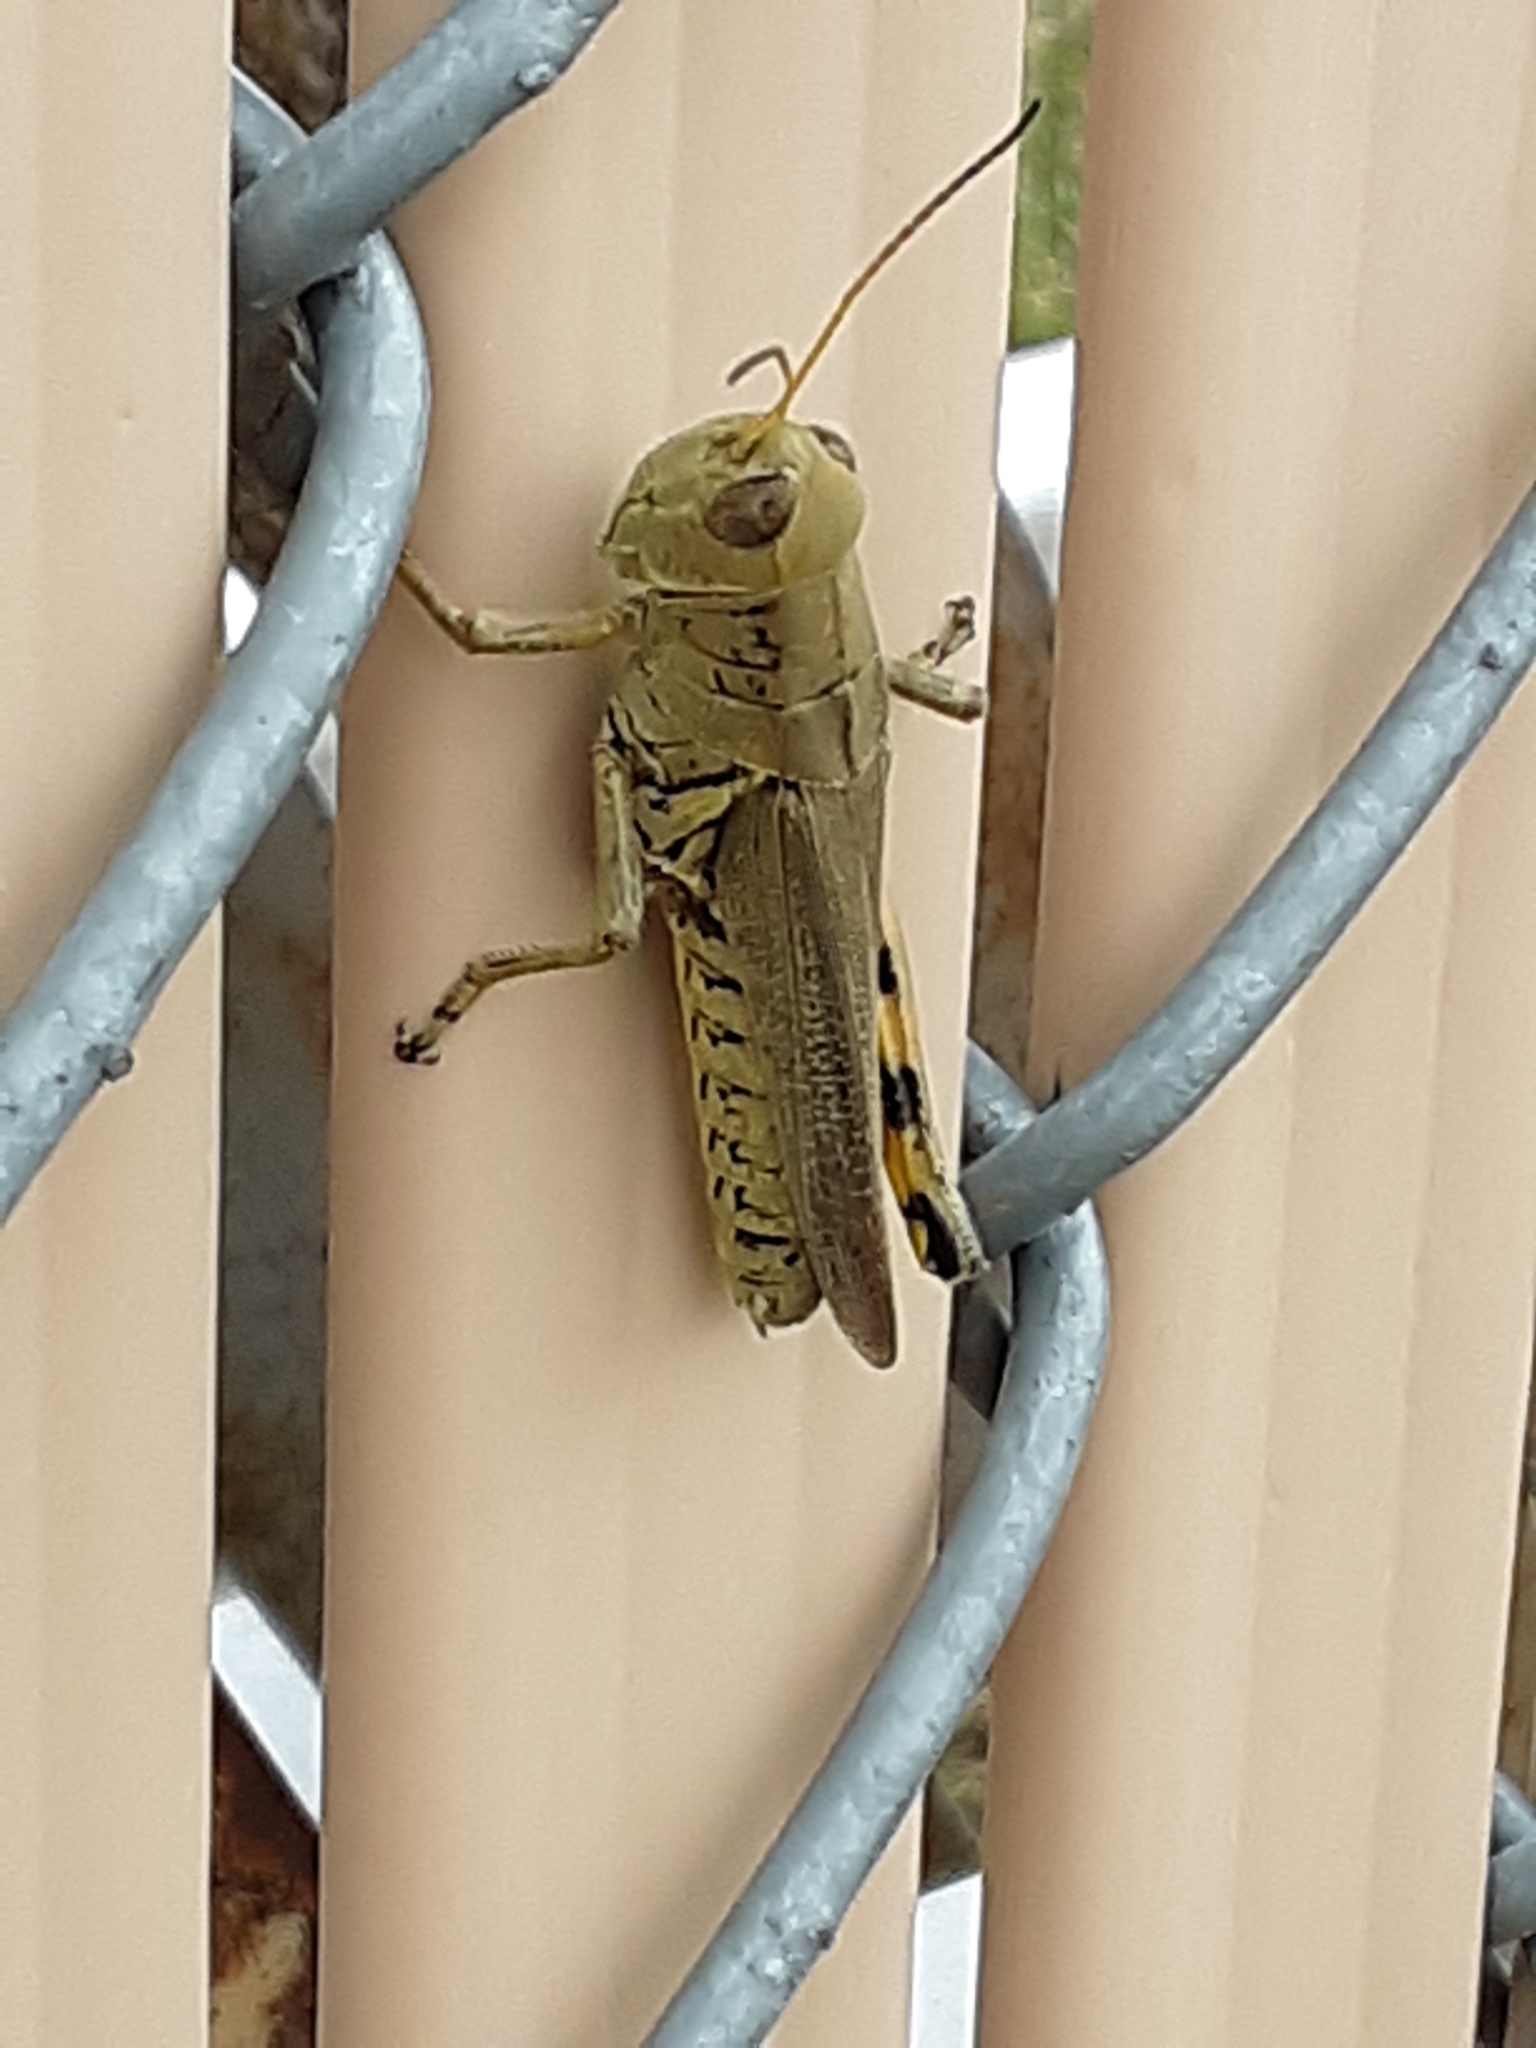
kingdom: Animalia
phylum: Arthropoda
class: Insecta
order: Orthoptera
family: Acrididae
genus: Melanoplus
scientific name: Melanoplus differentialis
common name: Differential grasshopper
